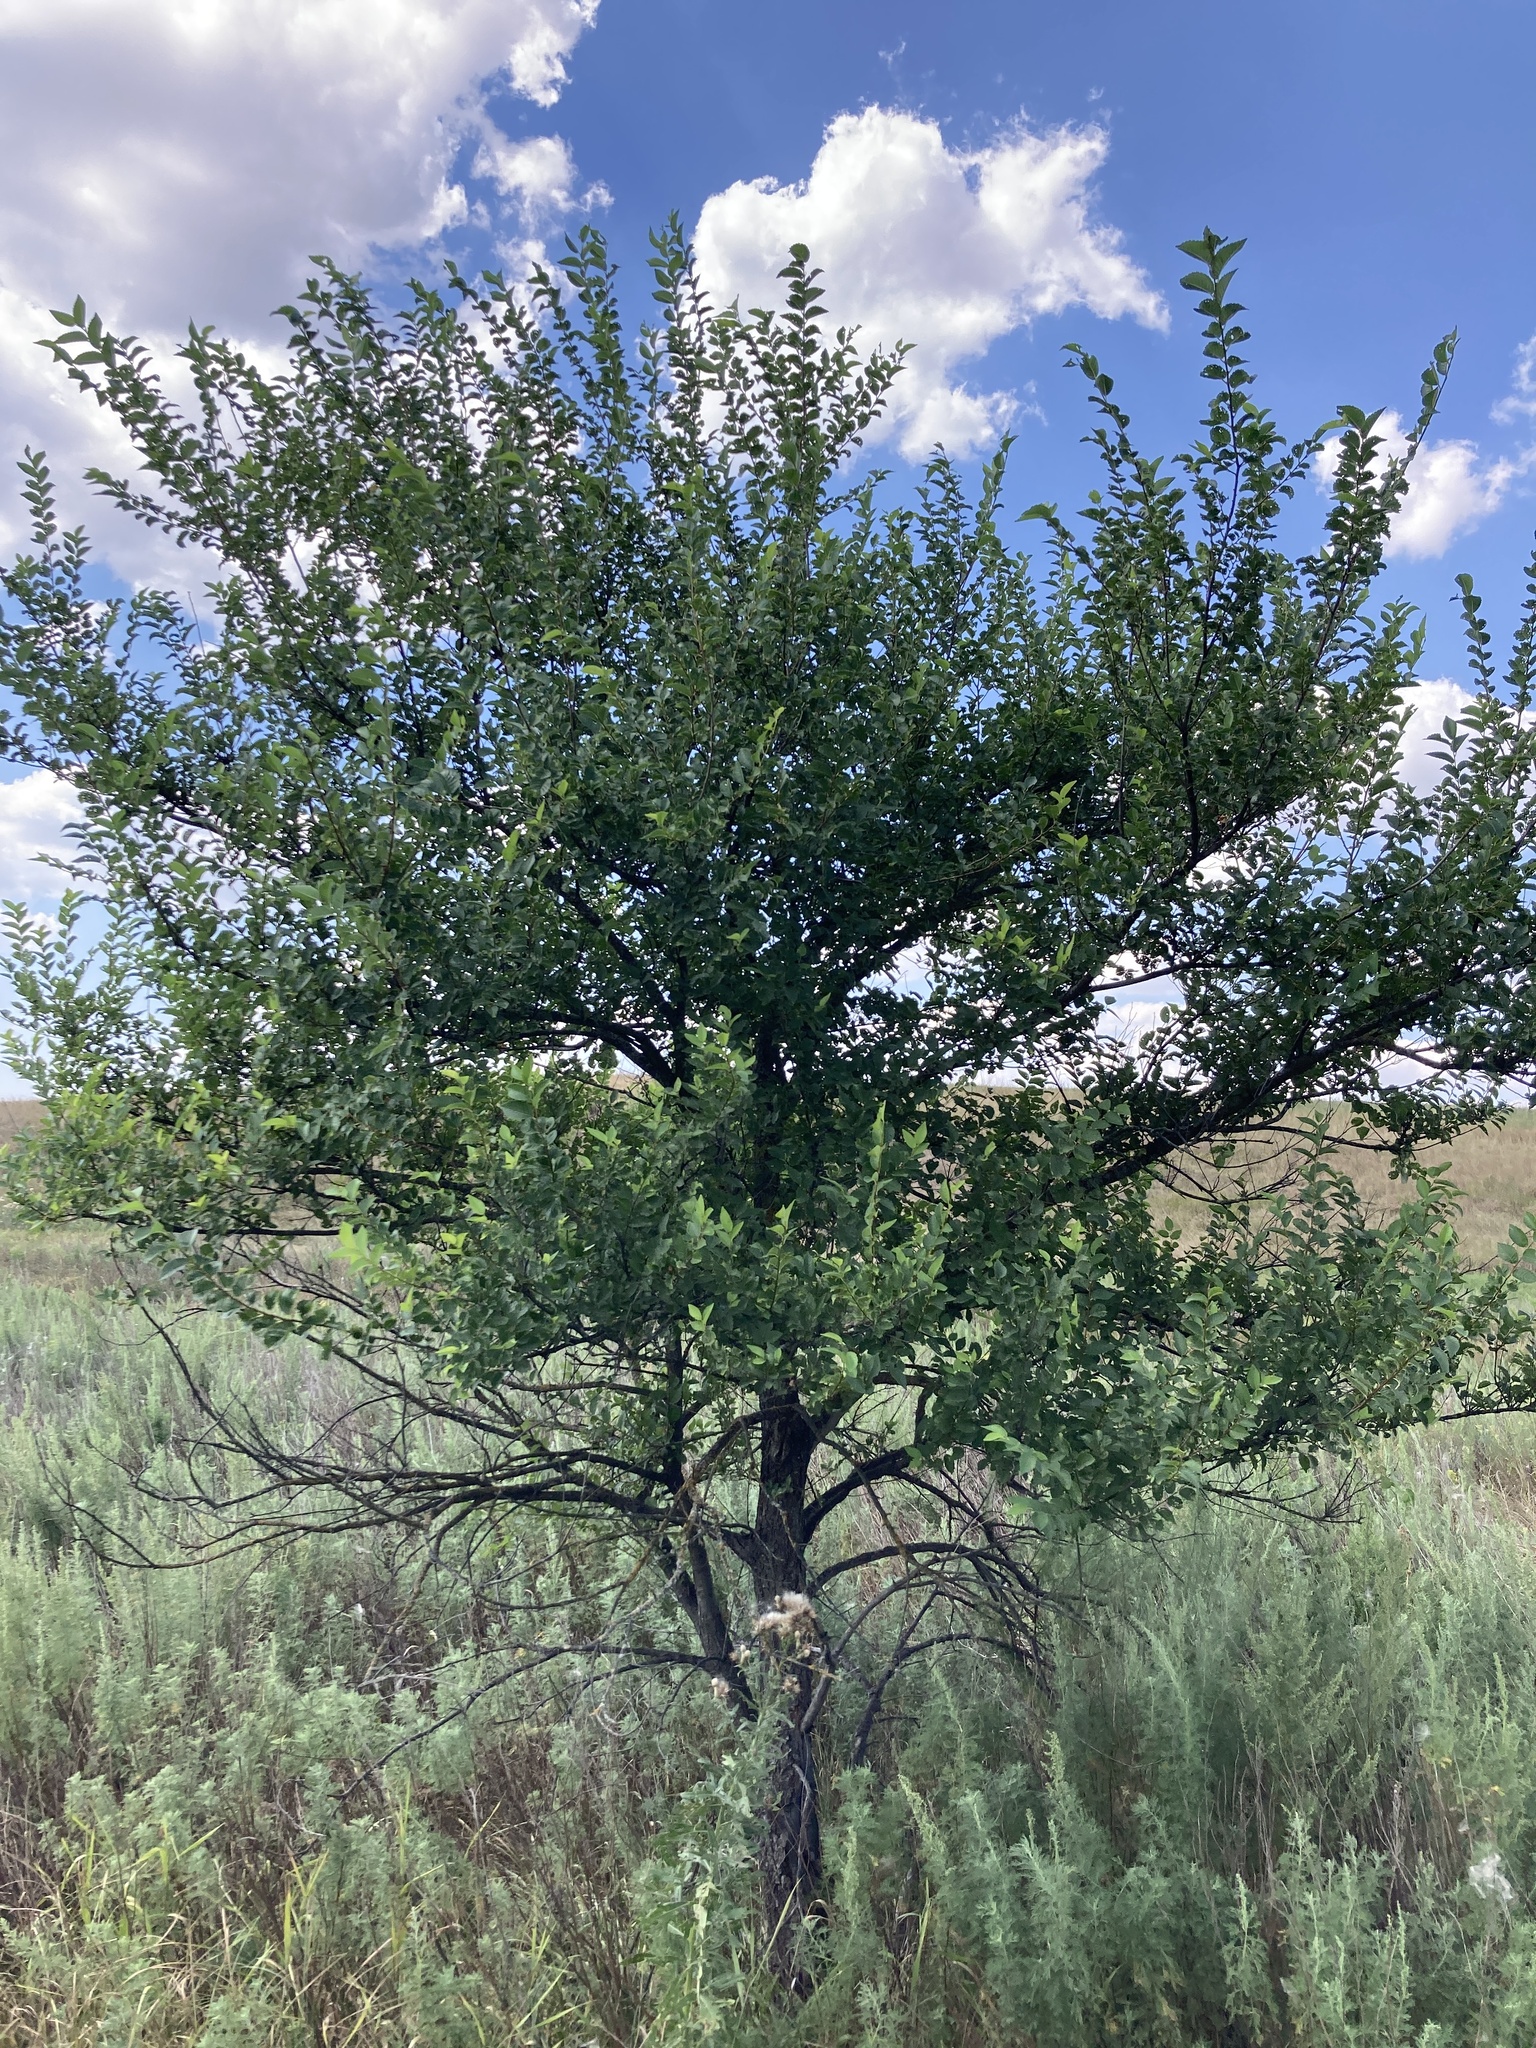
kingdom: Plantae
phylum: Tracheophyta
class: Magnoliopsida
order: Rosales
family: Ulmaceae
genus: Ulmus
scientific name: Ulmus pumila
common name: Siberian elm
